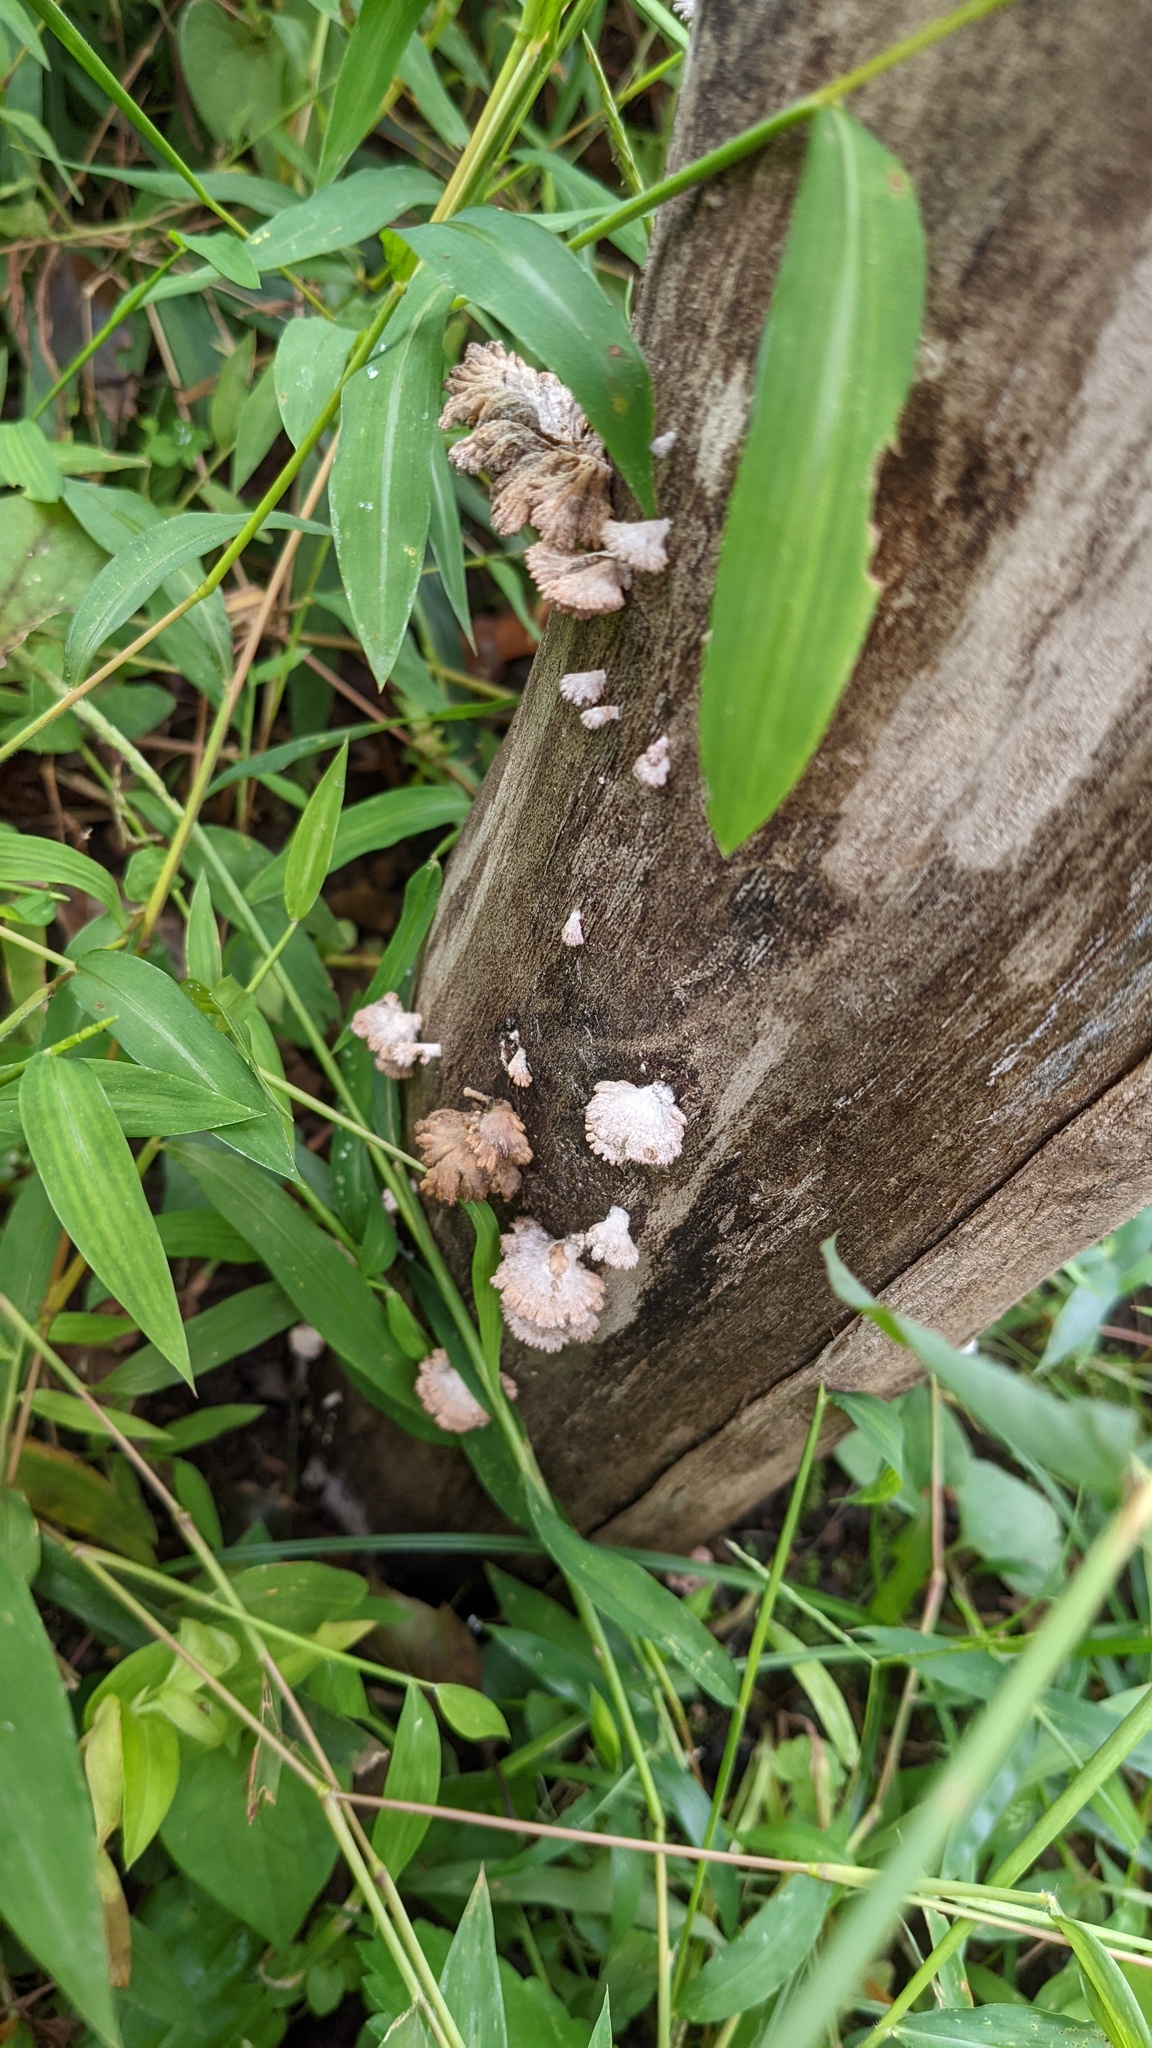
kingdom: Fungi
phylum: Basidiomycota
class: Agaricomycetes
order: Agaricales
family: Schizophyllaceae
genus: Schizophyllum
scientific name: Schizophyllum commune
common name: Common porecrust
